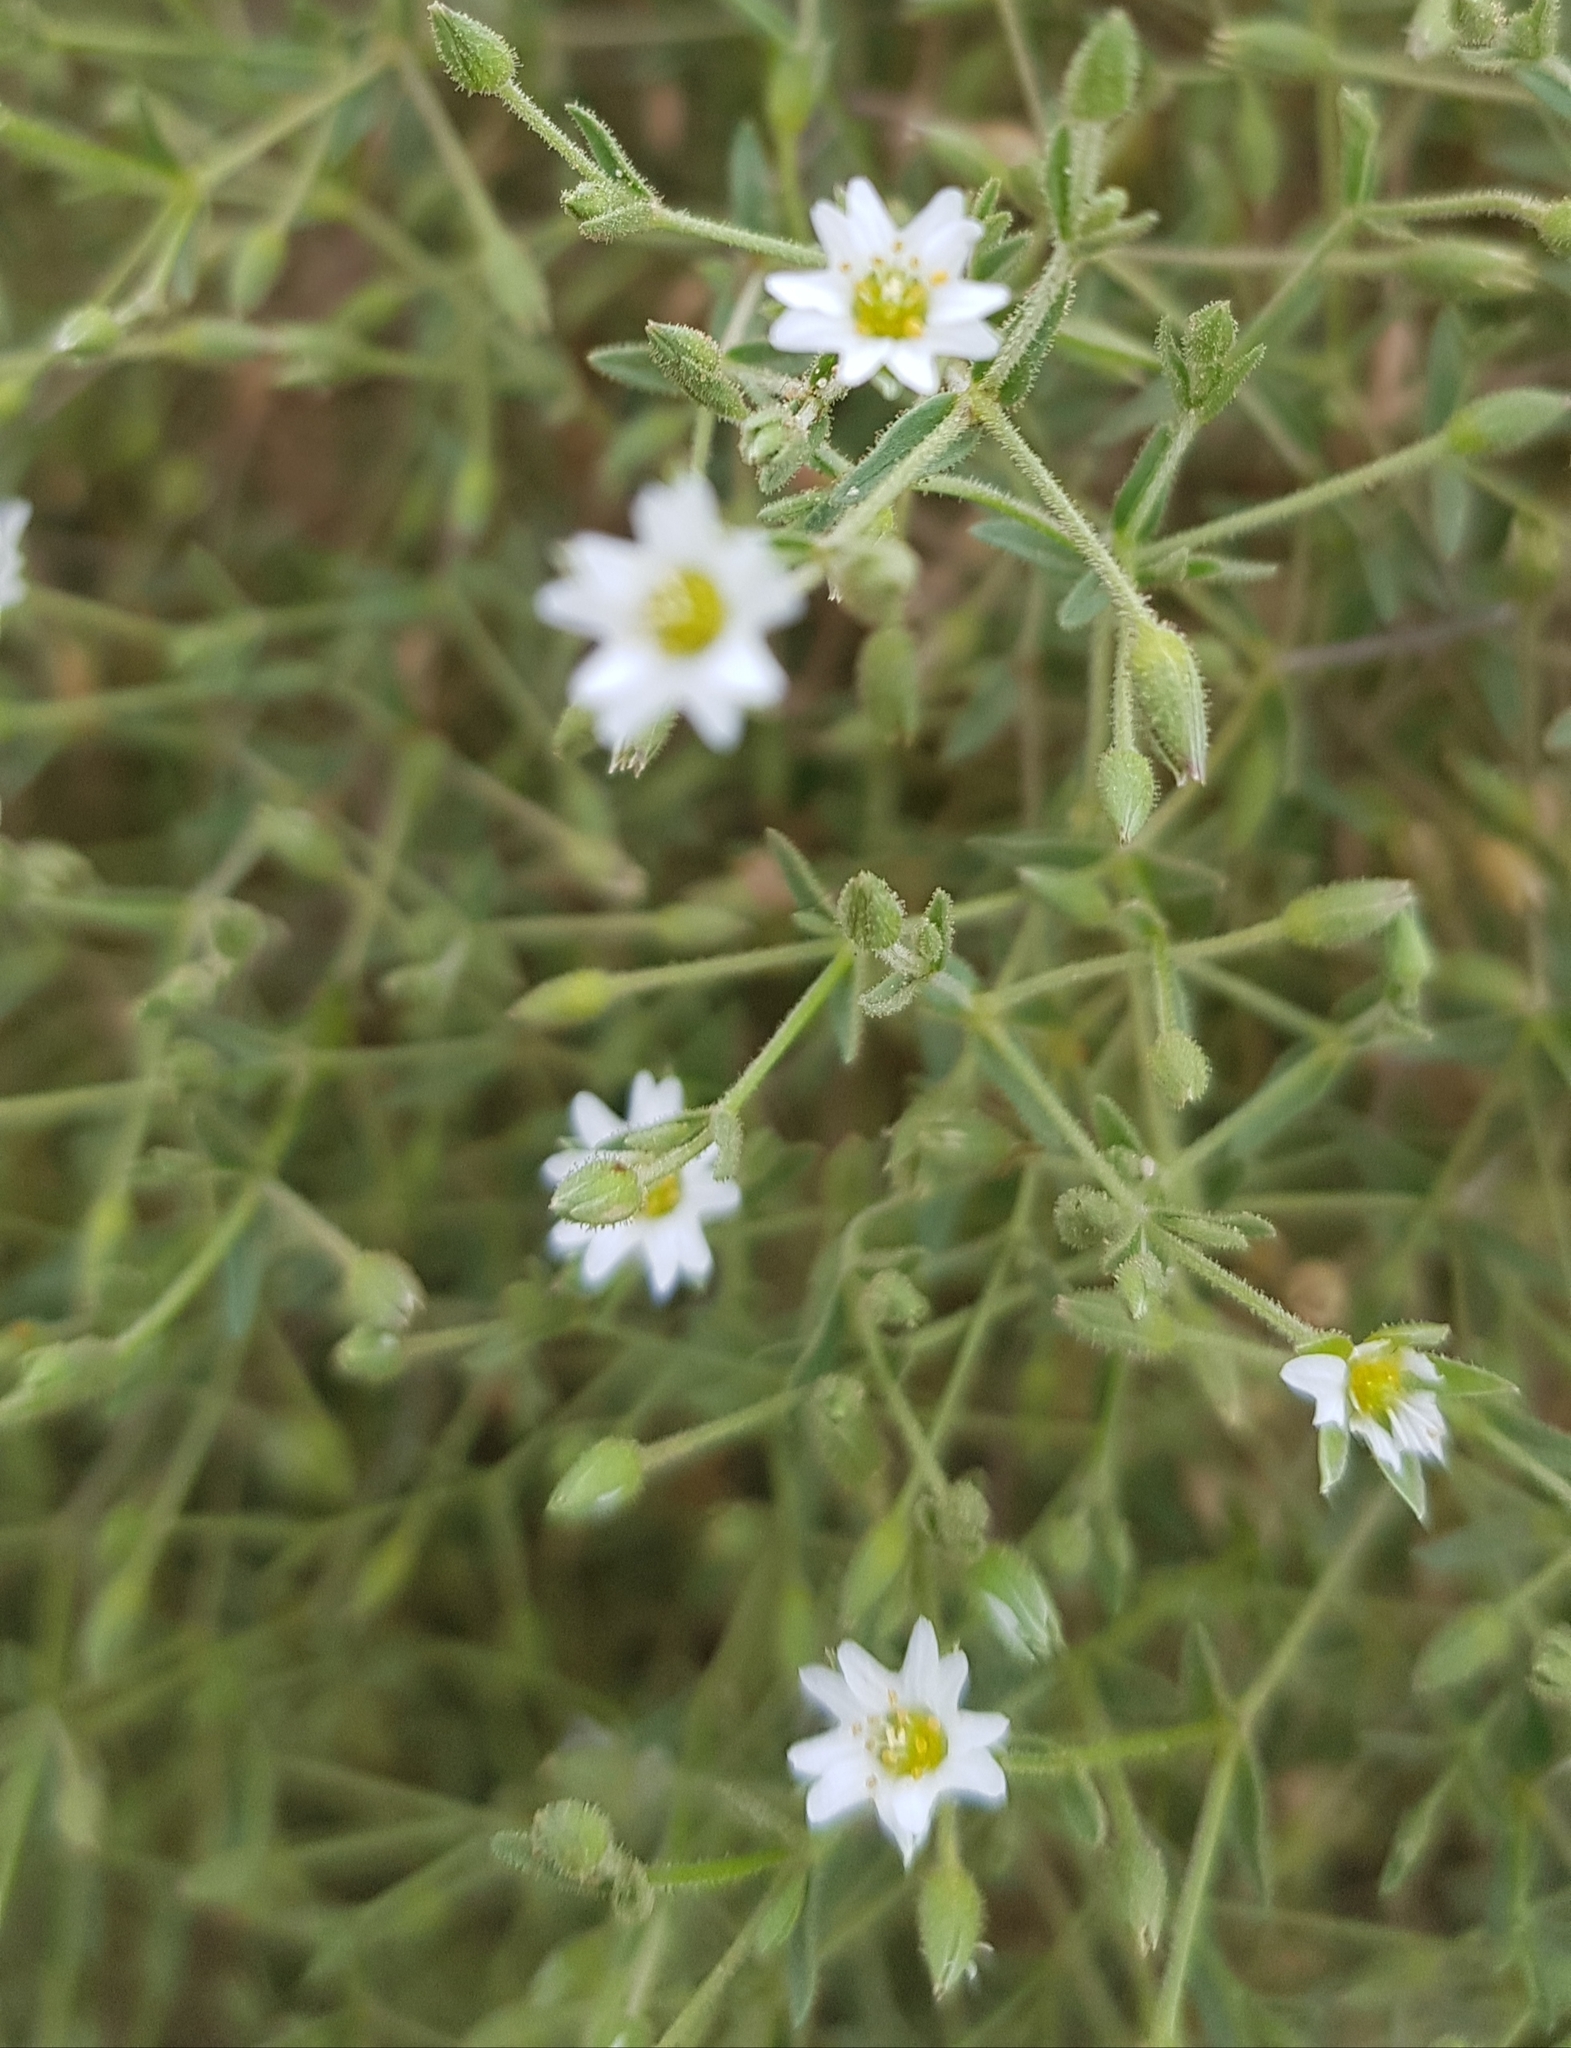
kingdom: Plantae
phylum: Tracheophyta
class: Magnoliopsida
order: Caryophyllales
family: Caryophyllaceae
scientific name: Caryophyllaceae
